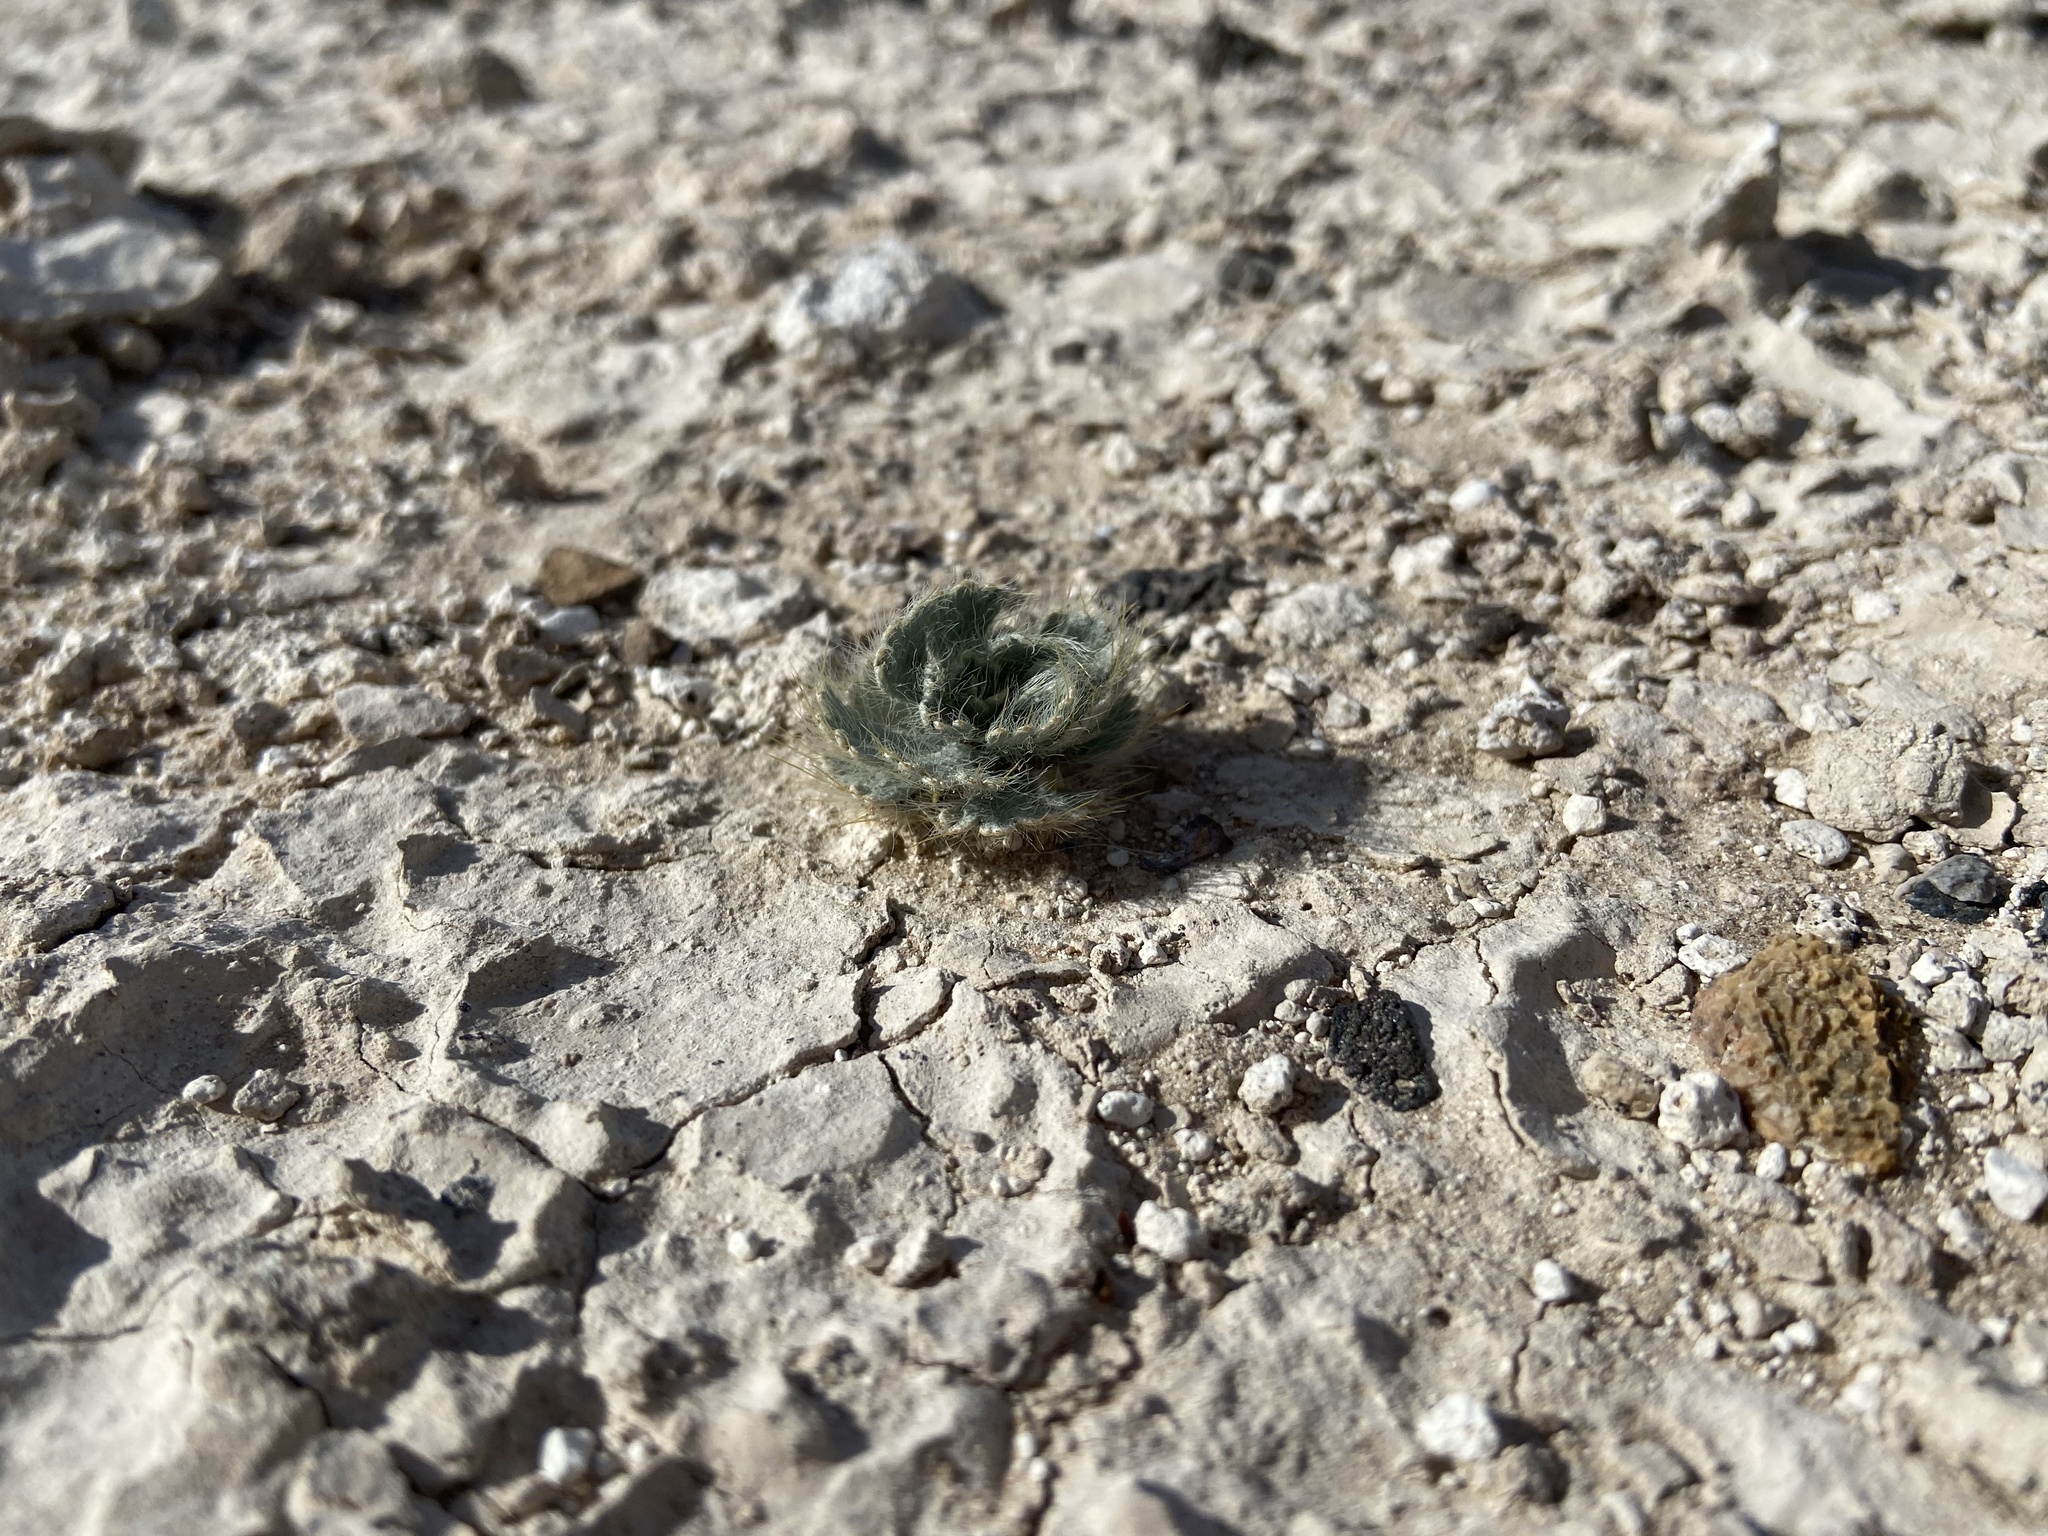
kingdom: Plantae
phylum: Tracheophyta
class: Magnoliopsida
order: Ranunculales
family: Papaveraceae
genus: Arctomecon
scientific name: Arctomecon californicum
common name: Golden bearclaw-poppy
